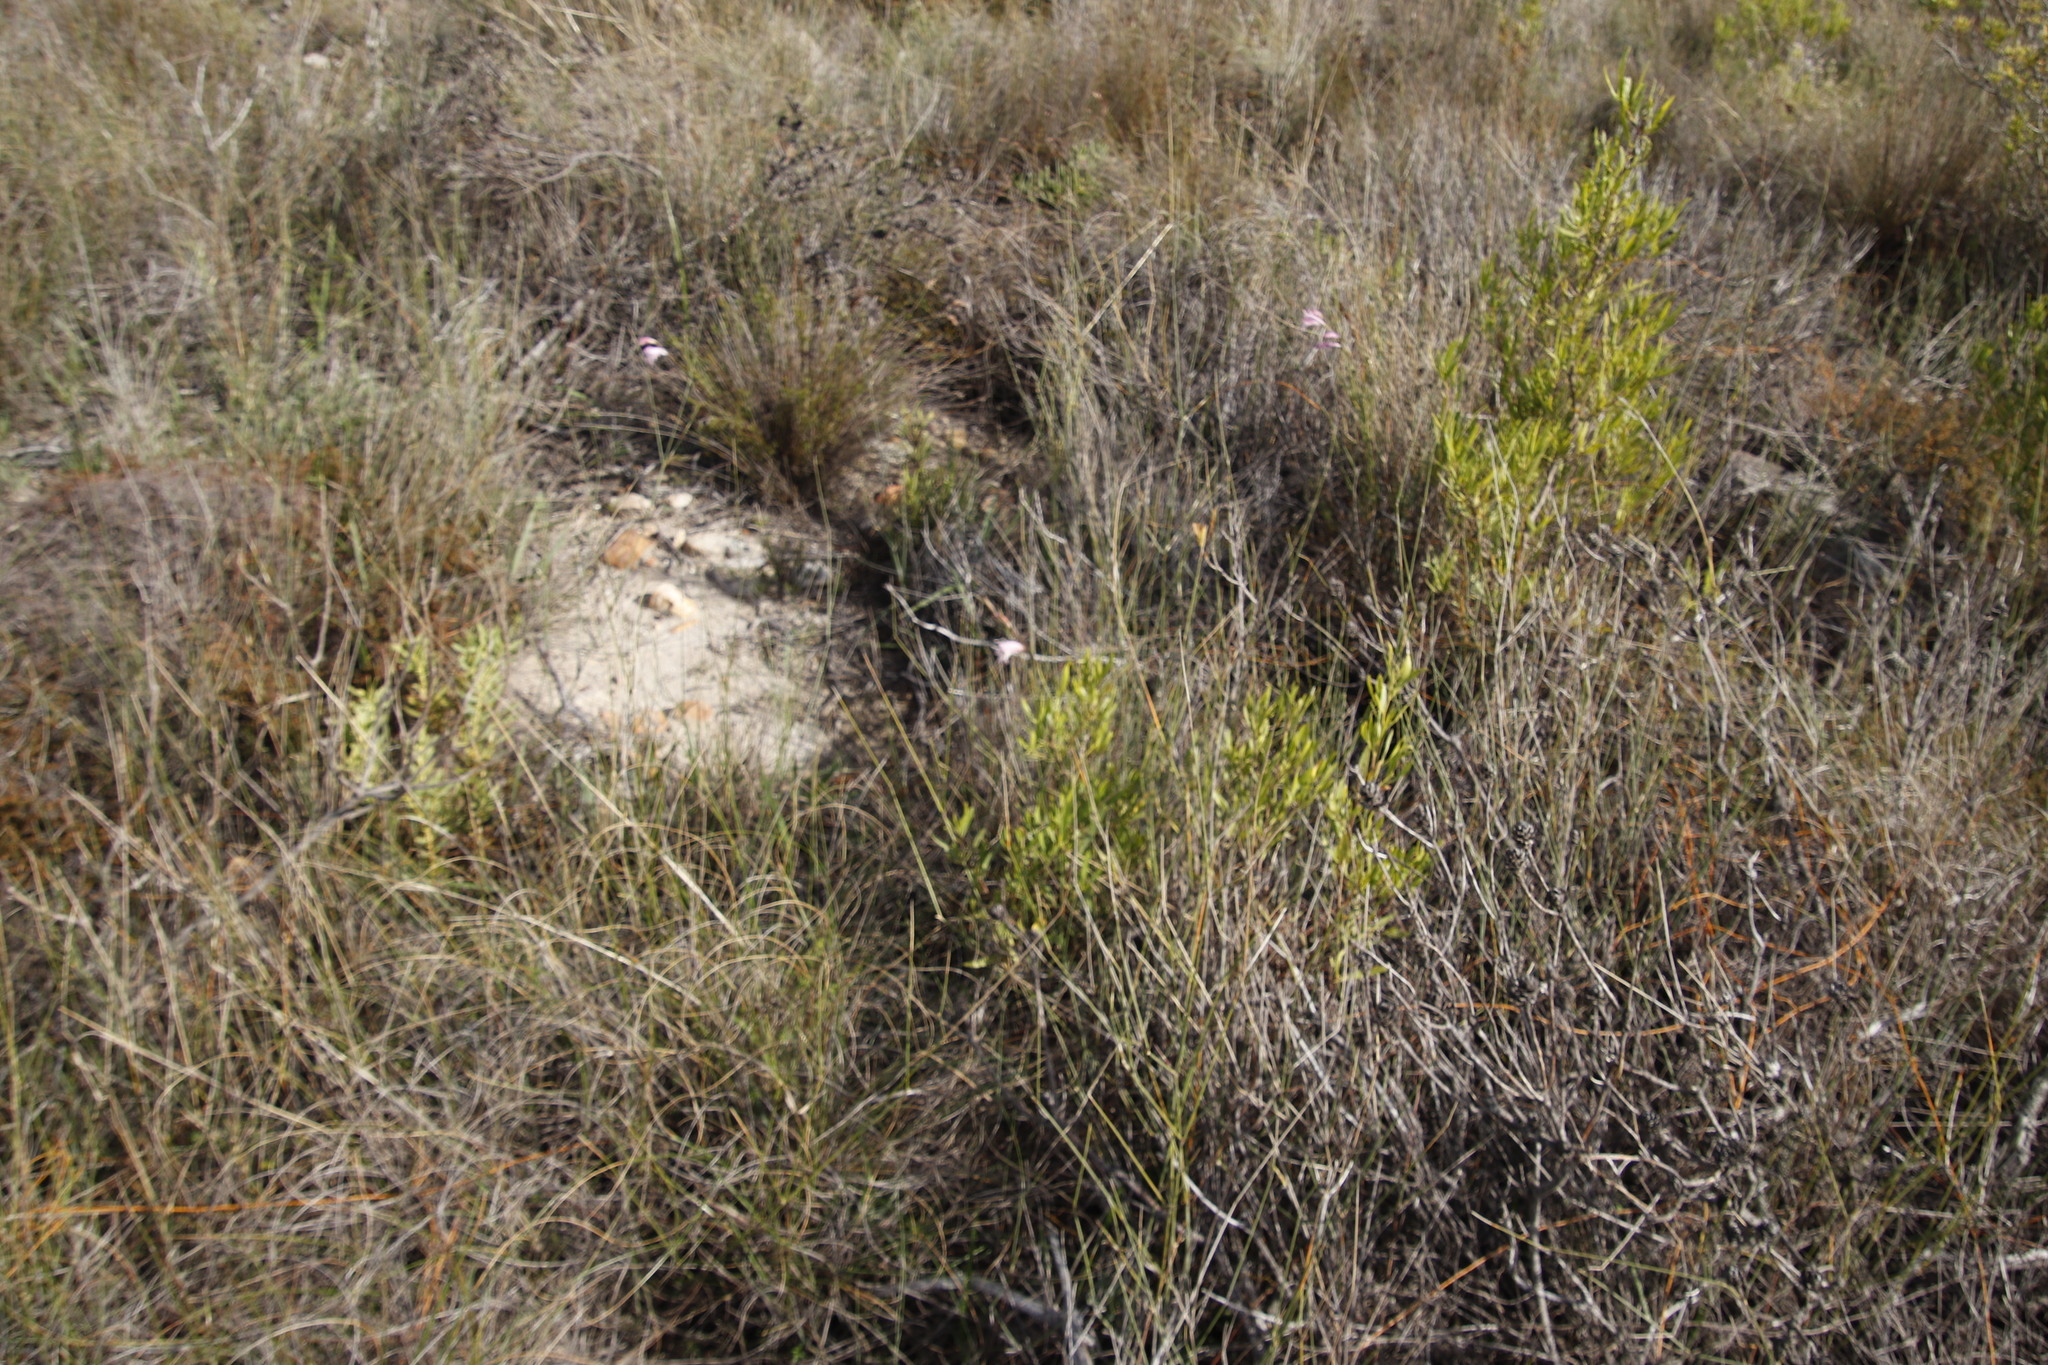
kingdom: Plantae
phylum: Tracheophyta
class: Magnoliopsida
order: Sapindales
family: Sapindaceae
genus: Dodonaea
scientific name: Dodonaea viscosa
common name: Hopbush
